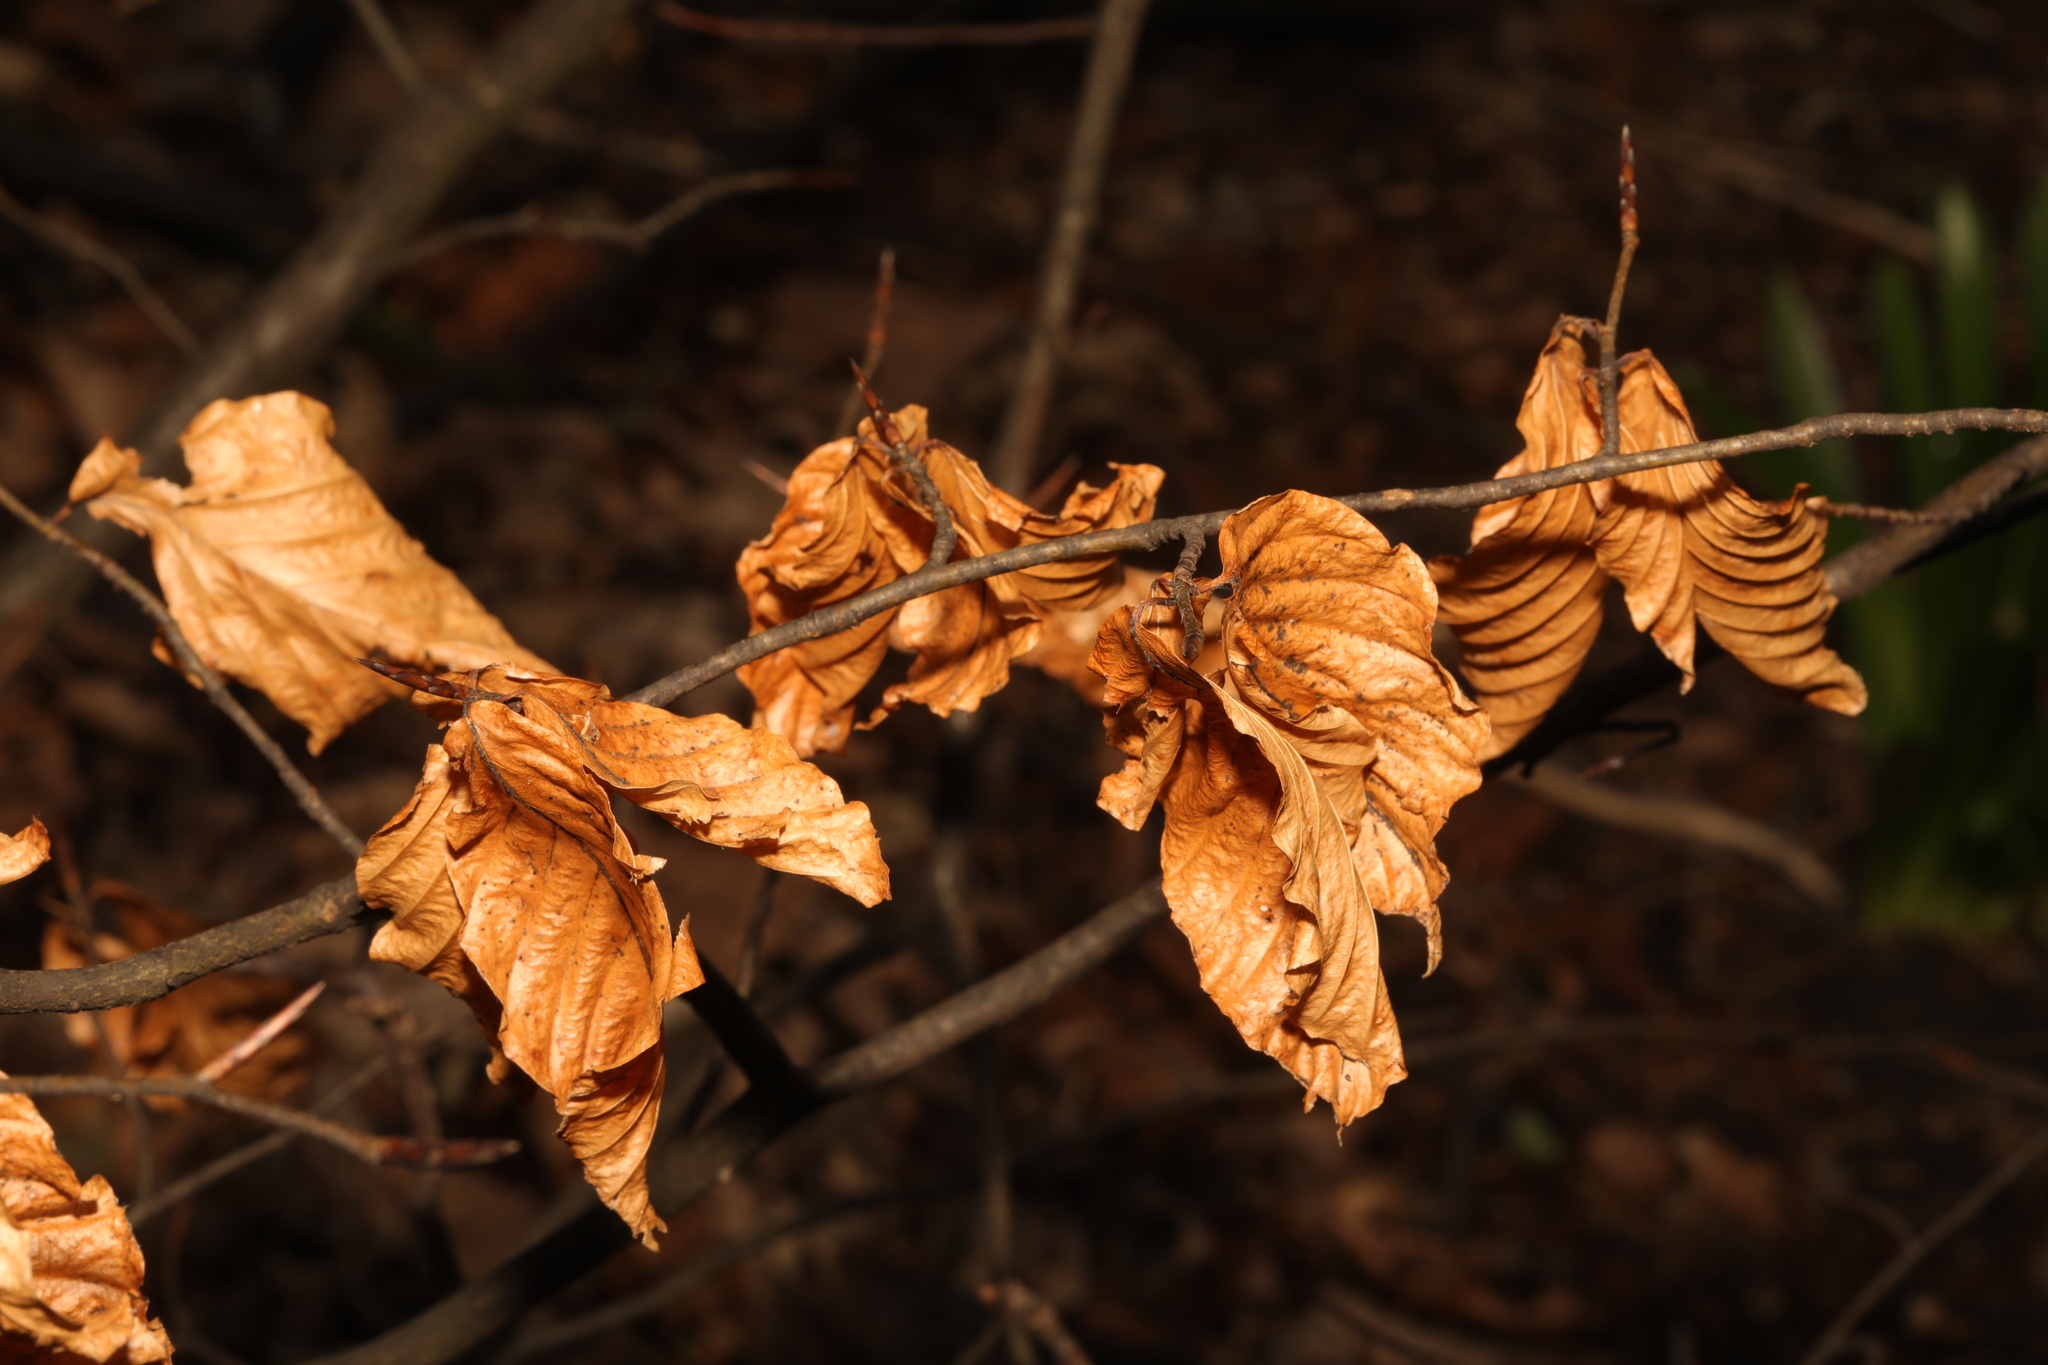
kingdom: Plantae
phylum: Tracheophyta
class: Magnoliopsida
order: Fagales
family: Fagaceae
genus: Fagus
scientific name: Fagus sylvatica
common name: Beech
